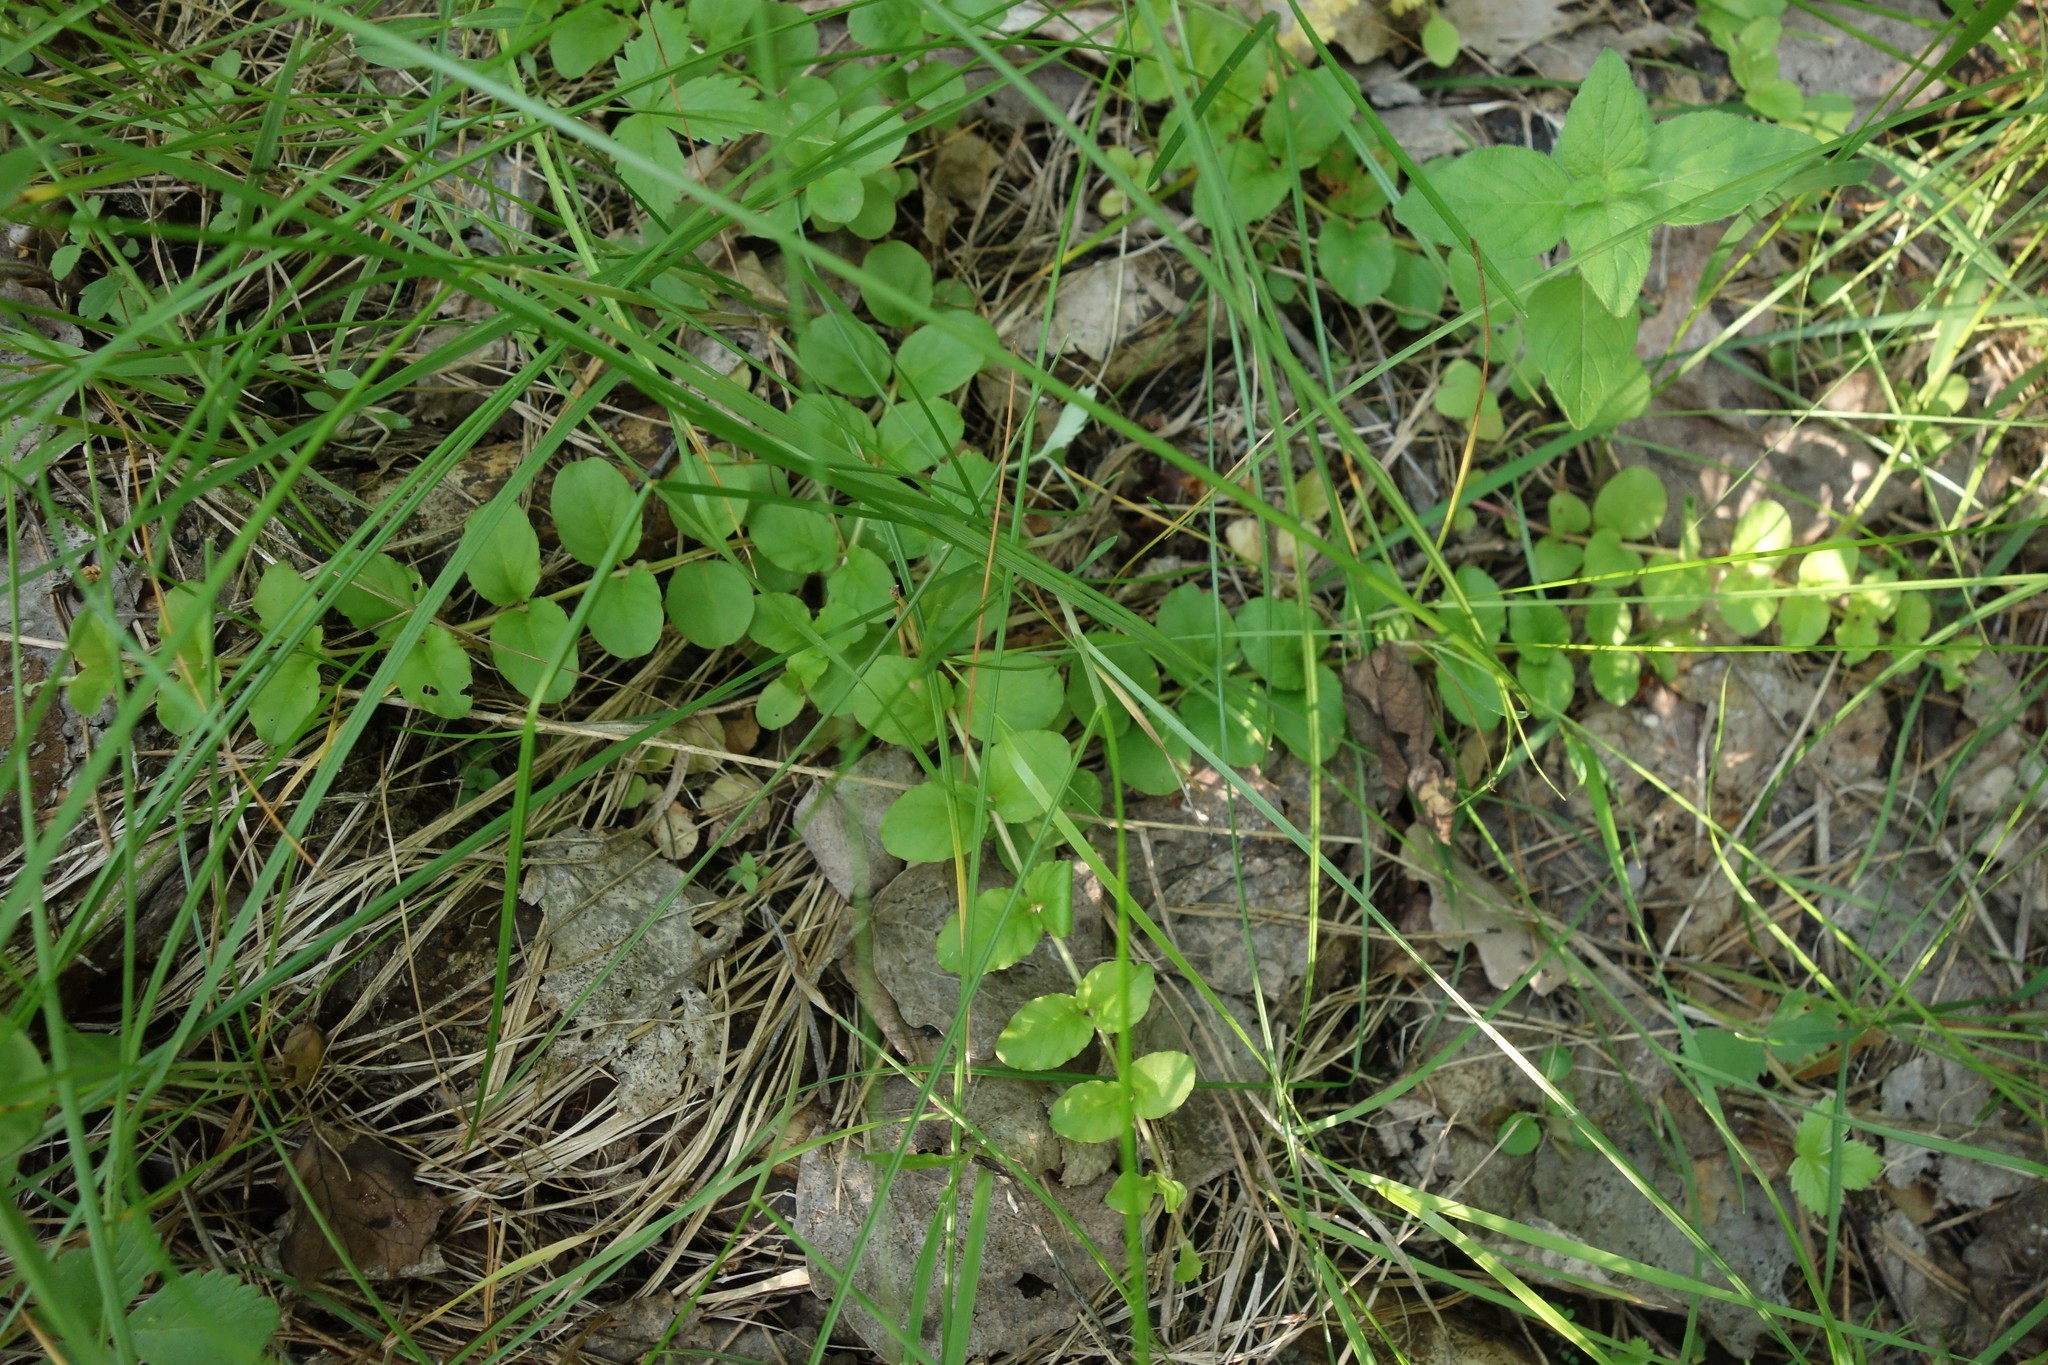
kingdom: Plantae
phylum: Tracheophyta
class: Magnoliopsida
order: Ericales
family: Primulaceae
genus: Lysimachia
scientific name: Lysimachia nummularia
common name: Moneywort
